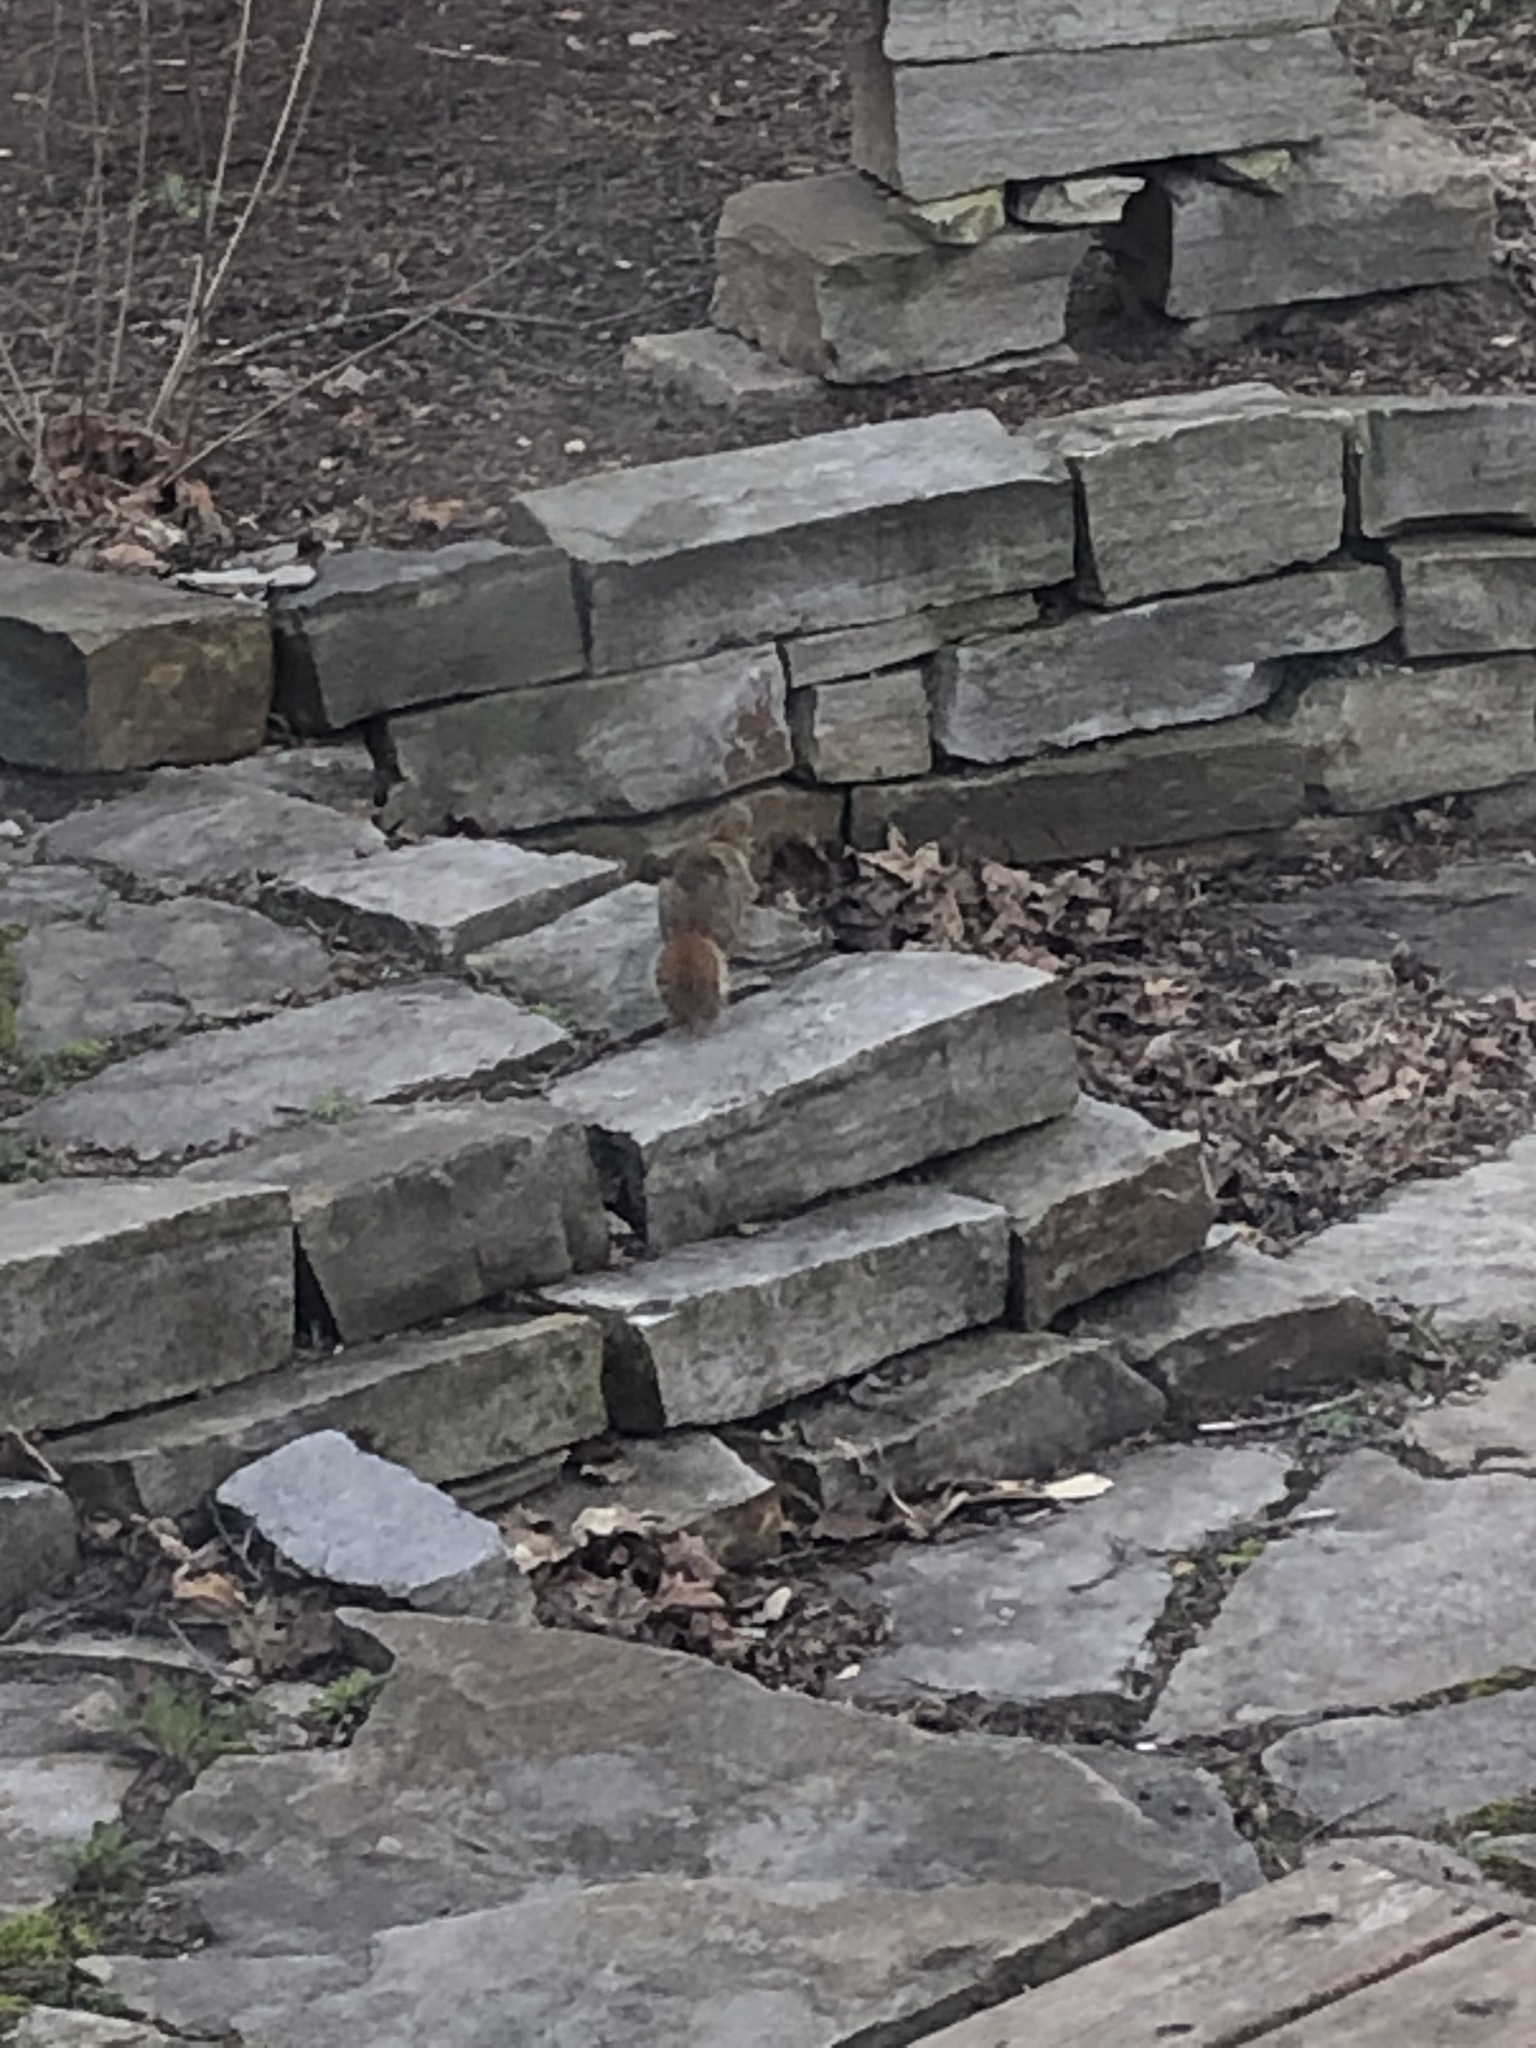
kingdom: Animalia
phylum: Chordata
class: Mammalia
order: Rodentia
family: Sciuridae
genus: Tamiasciurus
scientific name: Tamiasciurus hudsonicus
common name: Red squirrel
